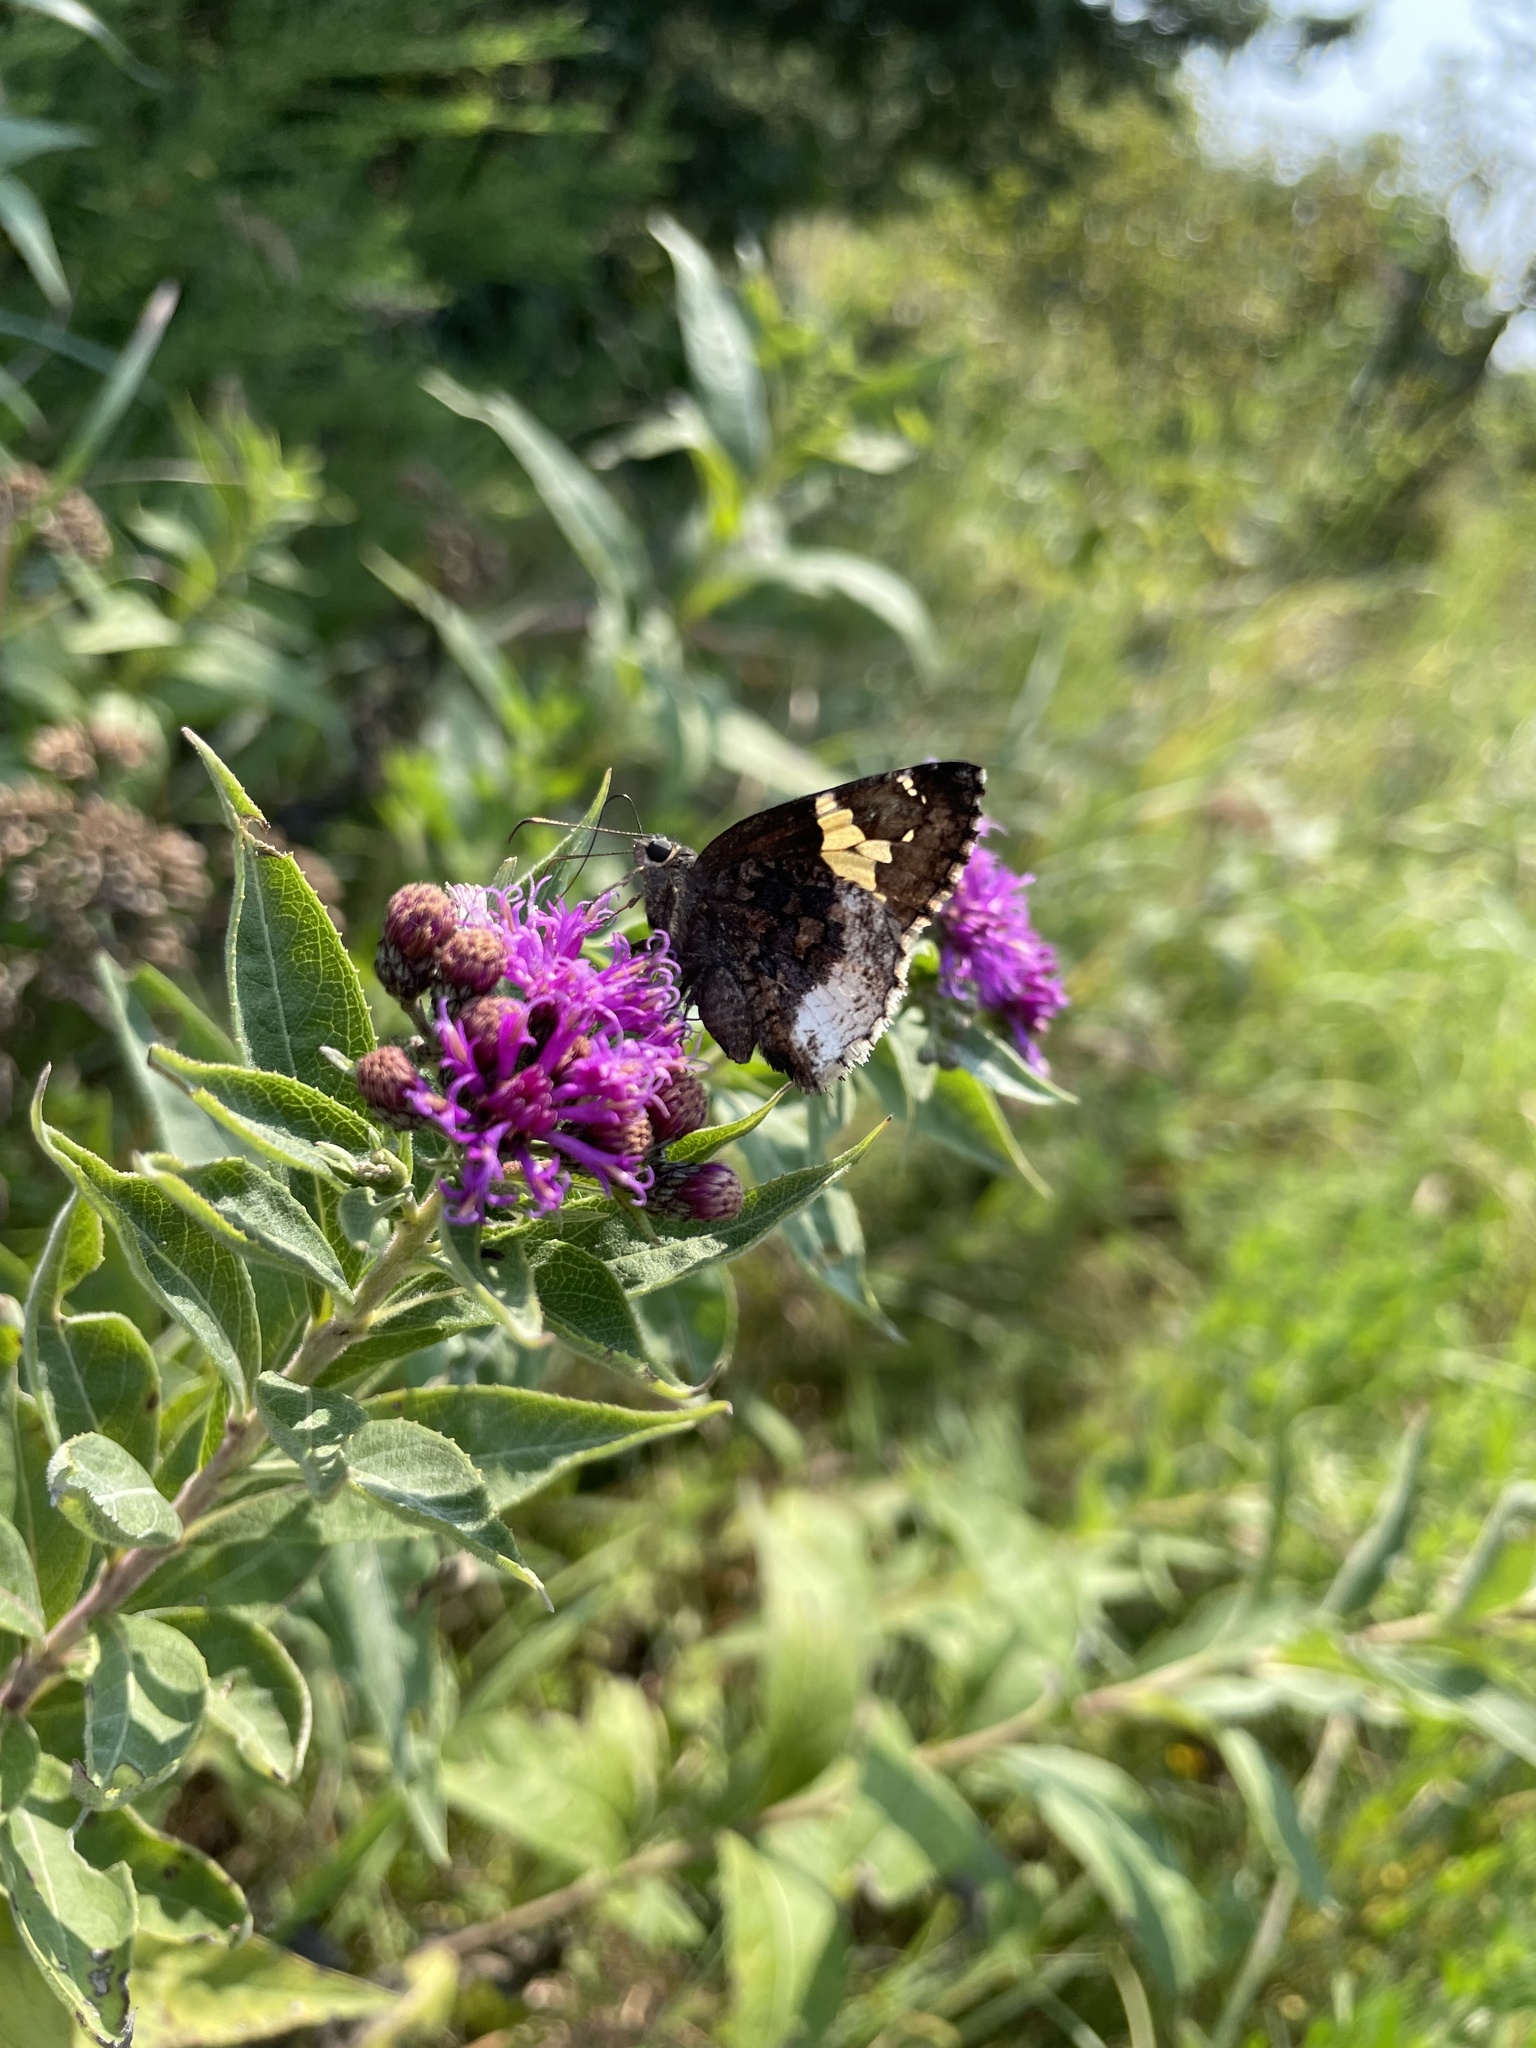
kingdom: Animalia
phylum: Arthropoda
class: Insecta
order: Lepidoptera
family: Hesperiidae
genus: Thorybes
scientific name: Thorybes lyciades
